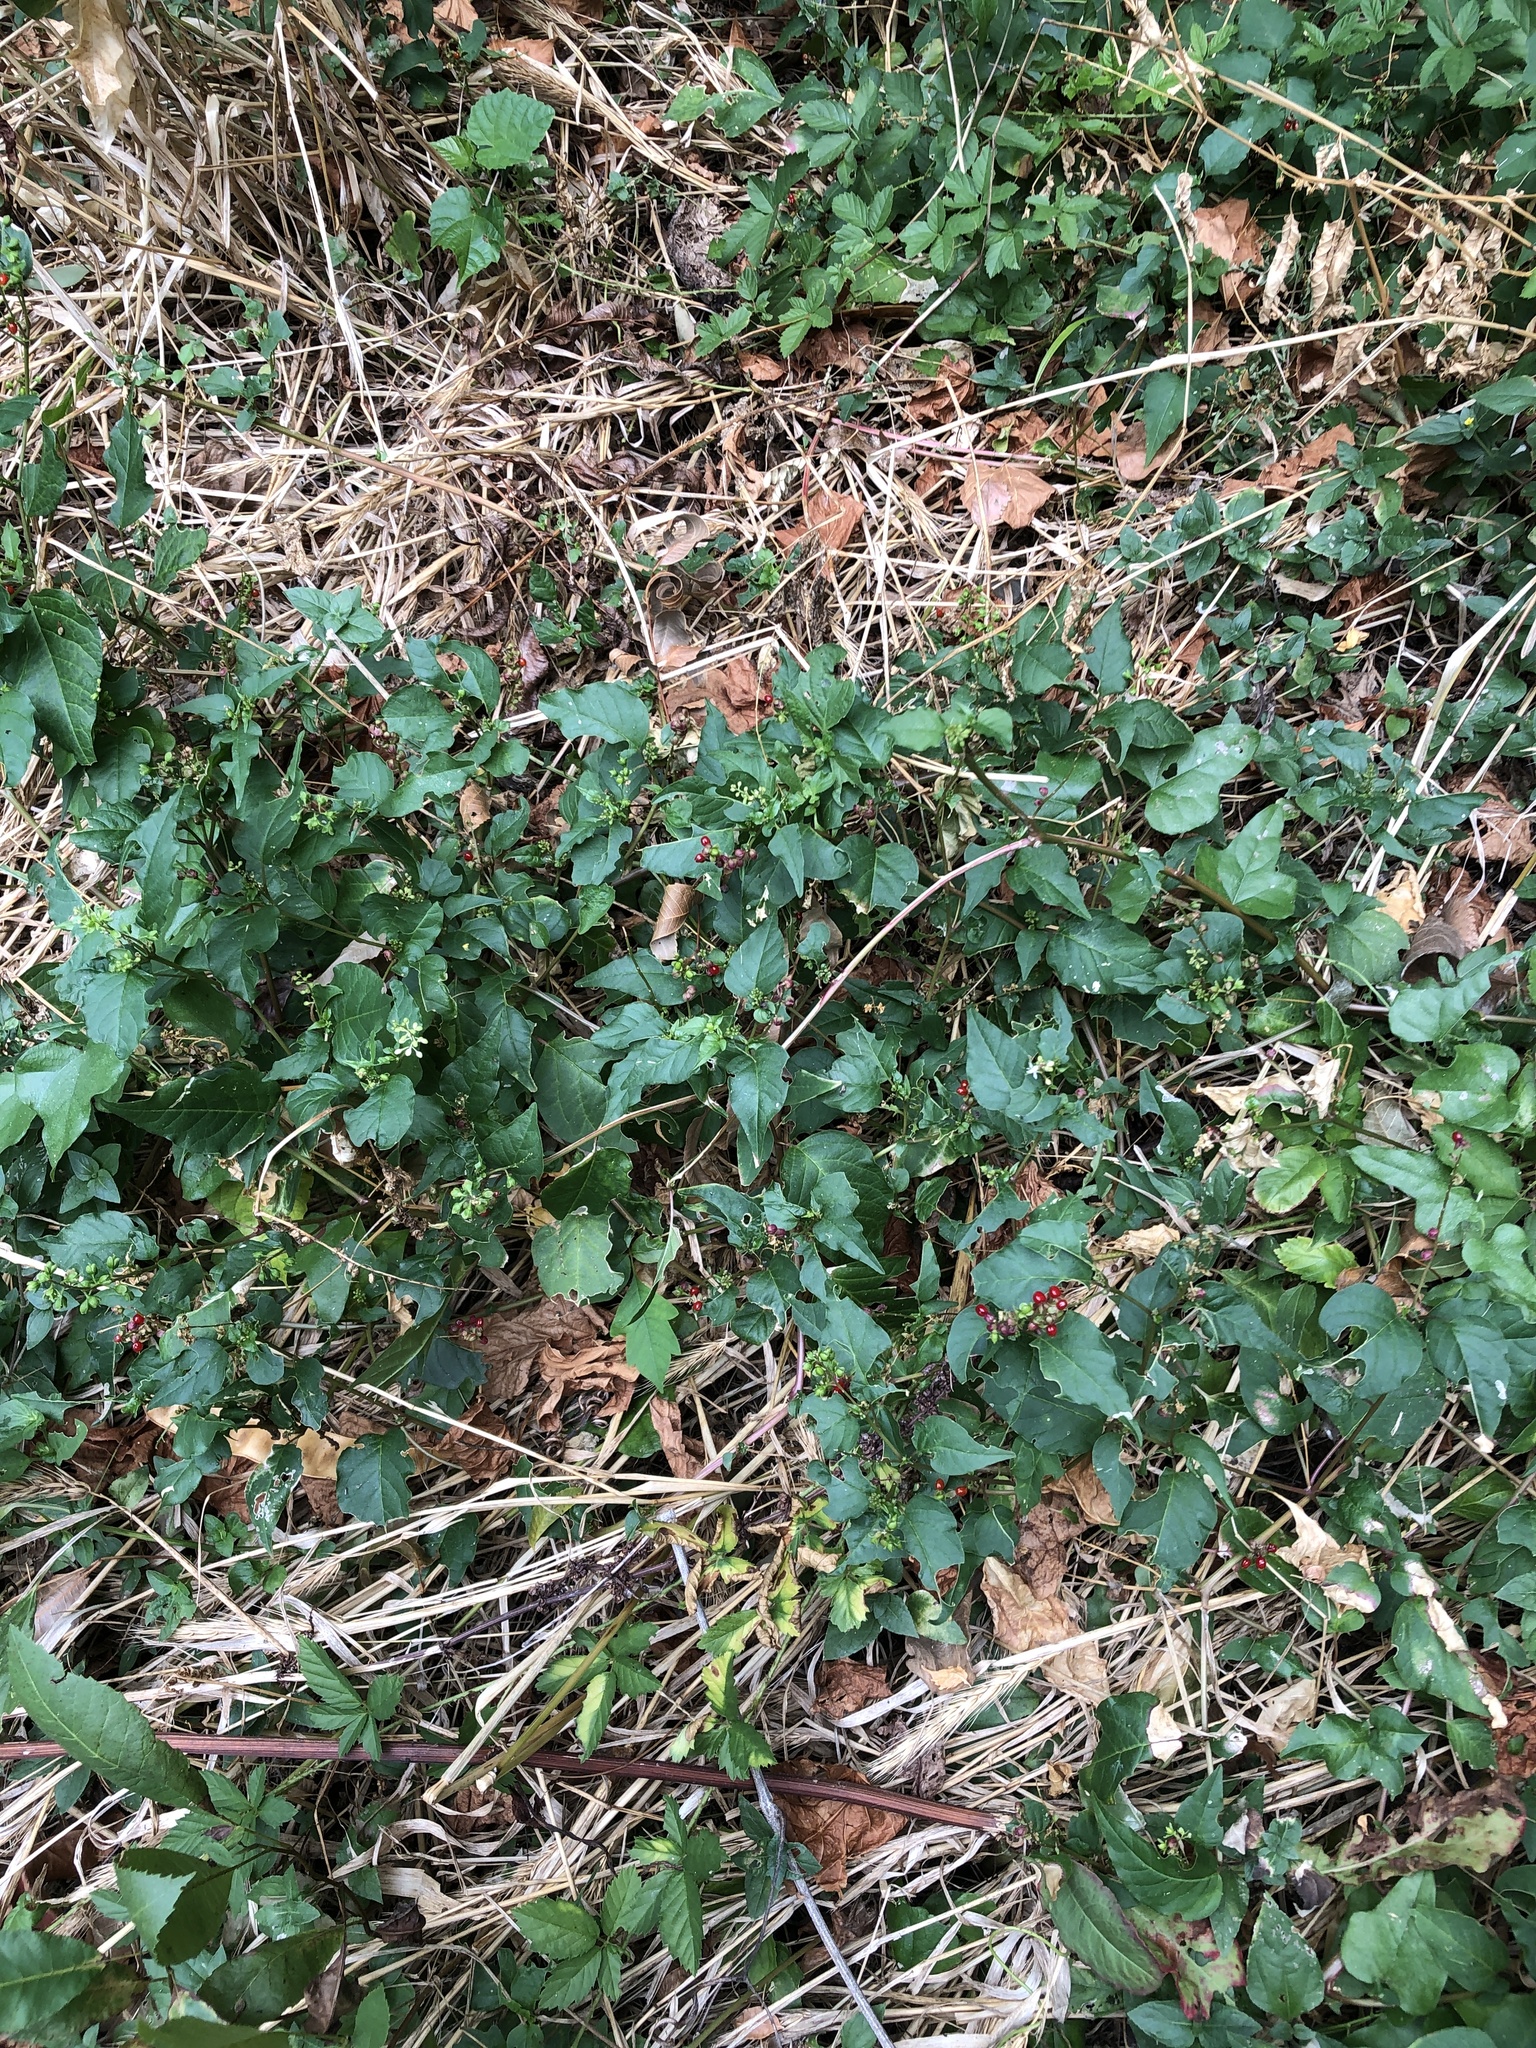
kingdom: Plantae
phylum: Tracheophyta
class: Magnoliopsida
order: Caryophyllales
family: Phytolaccaceae
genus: Rivina
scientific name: Rivina humilis
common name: Rougeplant
